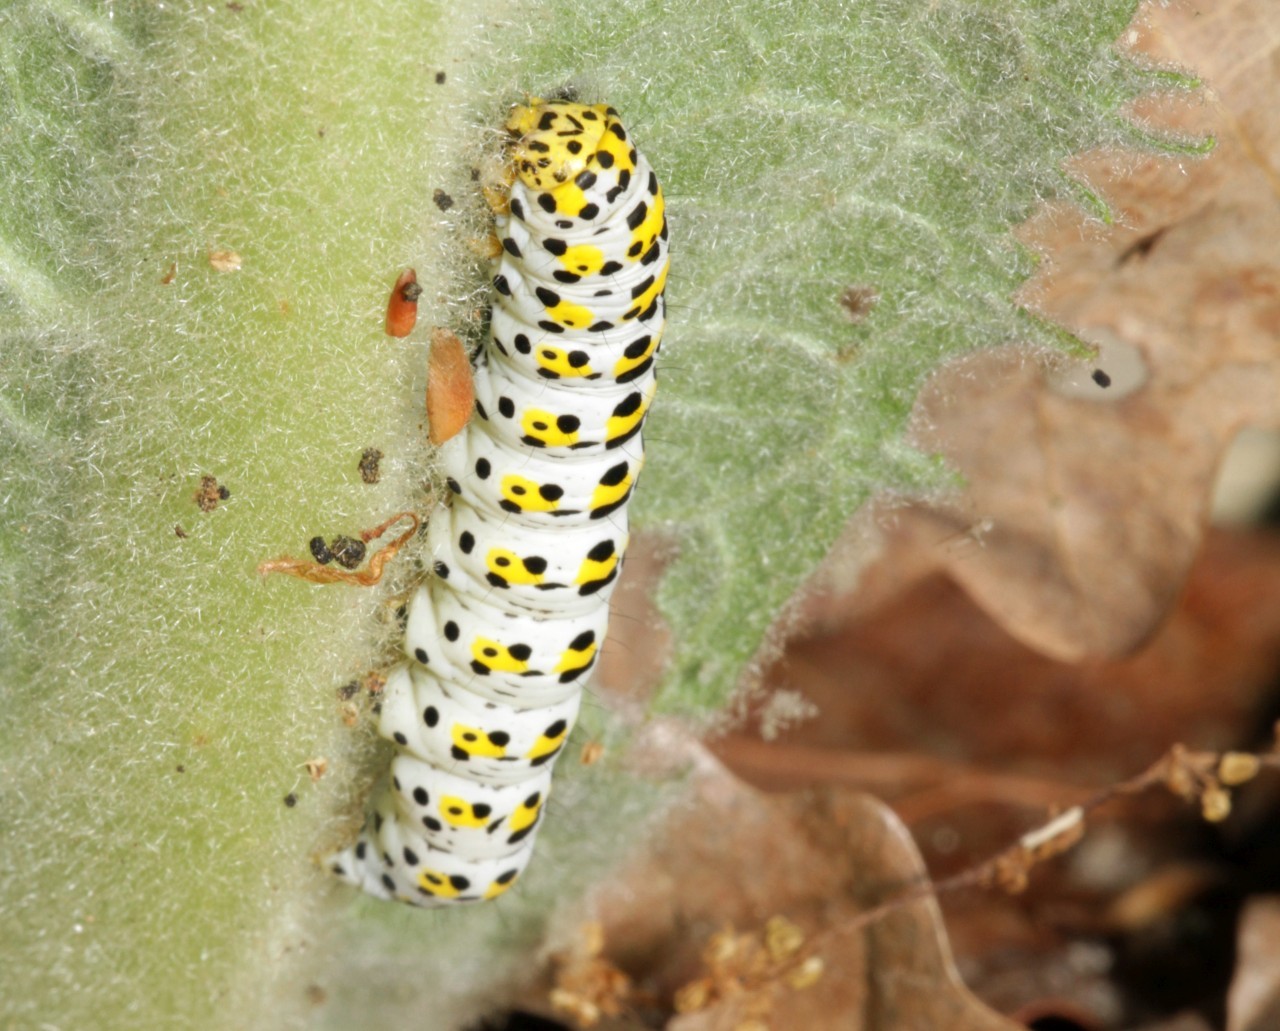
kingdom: Animalia
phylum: Arthropoda
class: Insecta
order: Lepidoptera
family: Noctuidae
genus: Cucullia
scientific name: Cucullia verbasci
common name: Mullein
